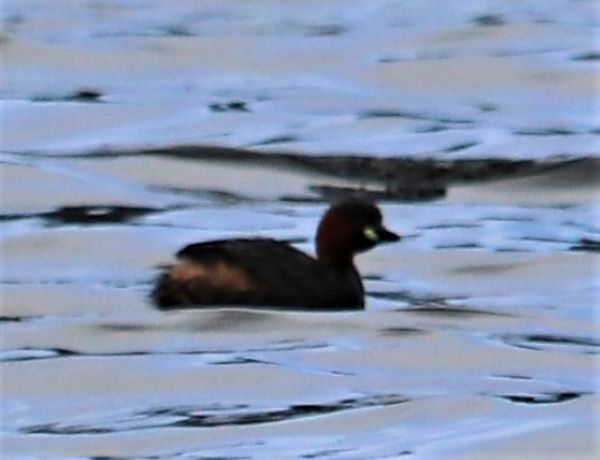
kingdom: Animalia
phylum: Chordata
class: Aves
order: Podicipediformes
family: Podicipedidae
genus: Tachybaptus
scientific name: Tachybaptus ruficollis
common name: Little grebe
